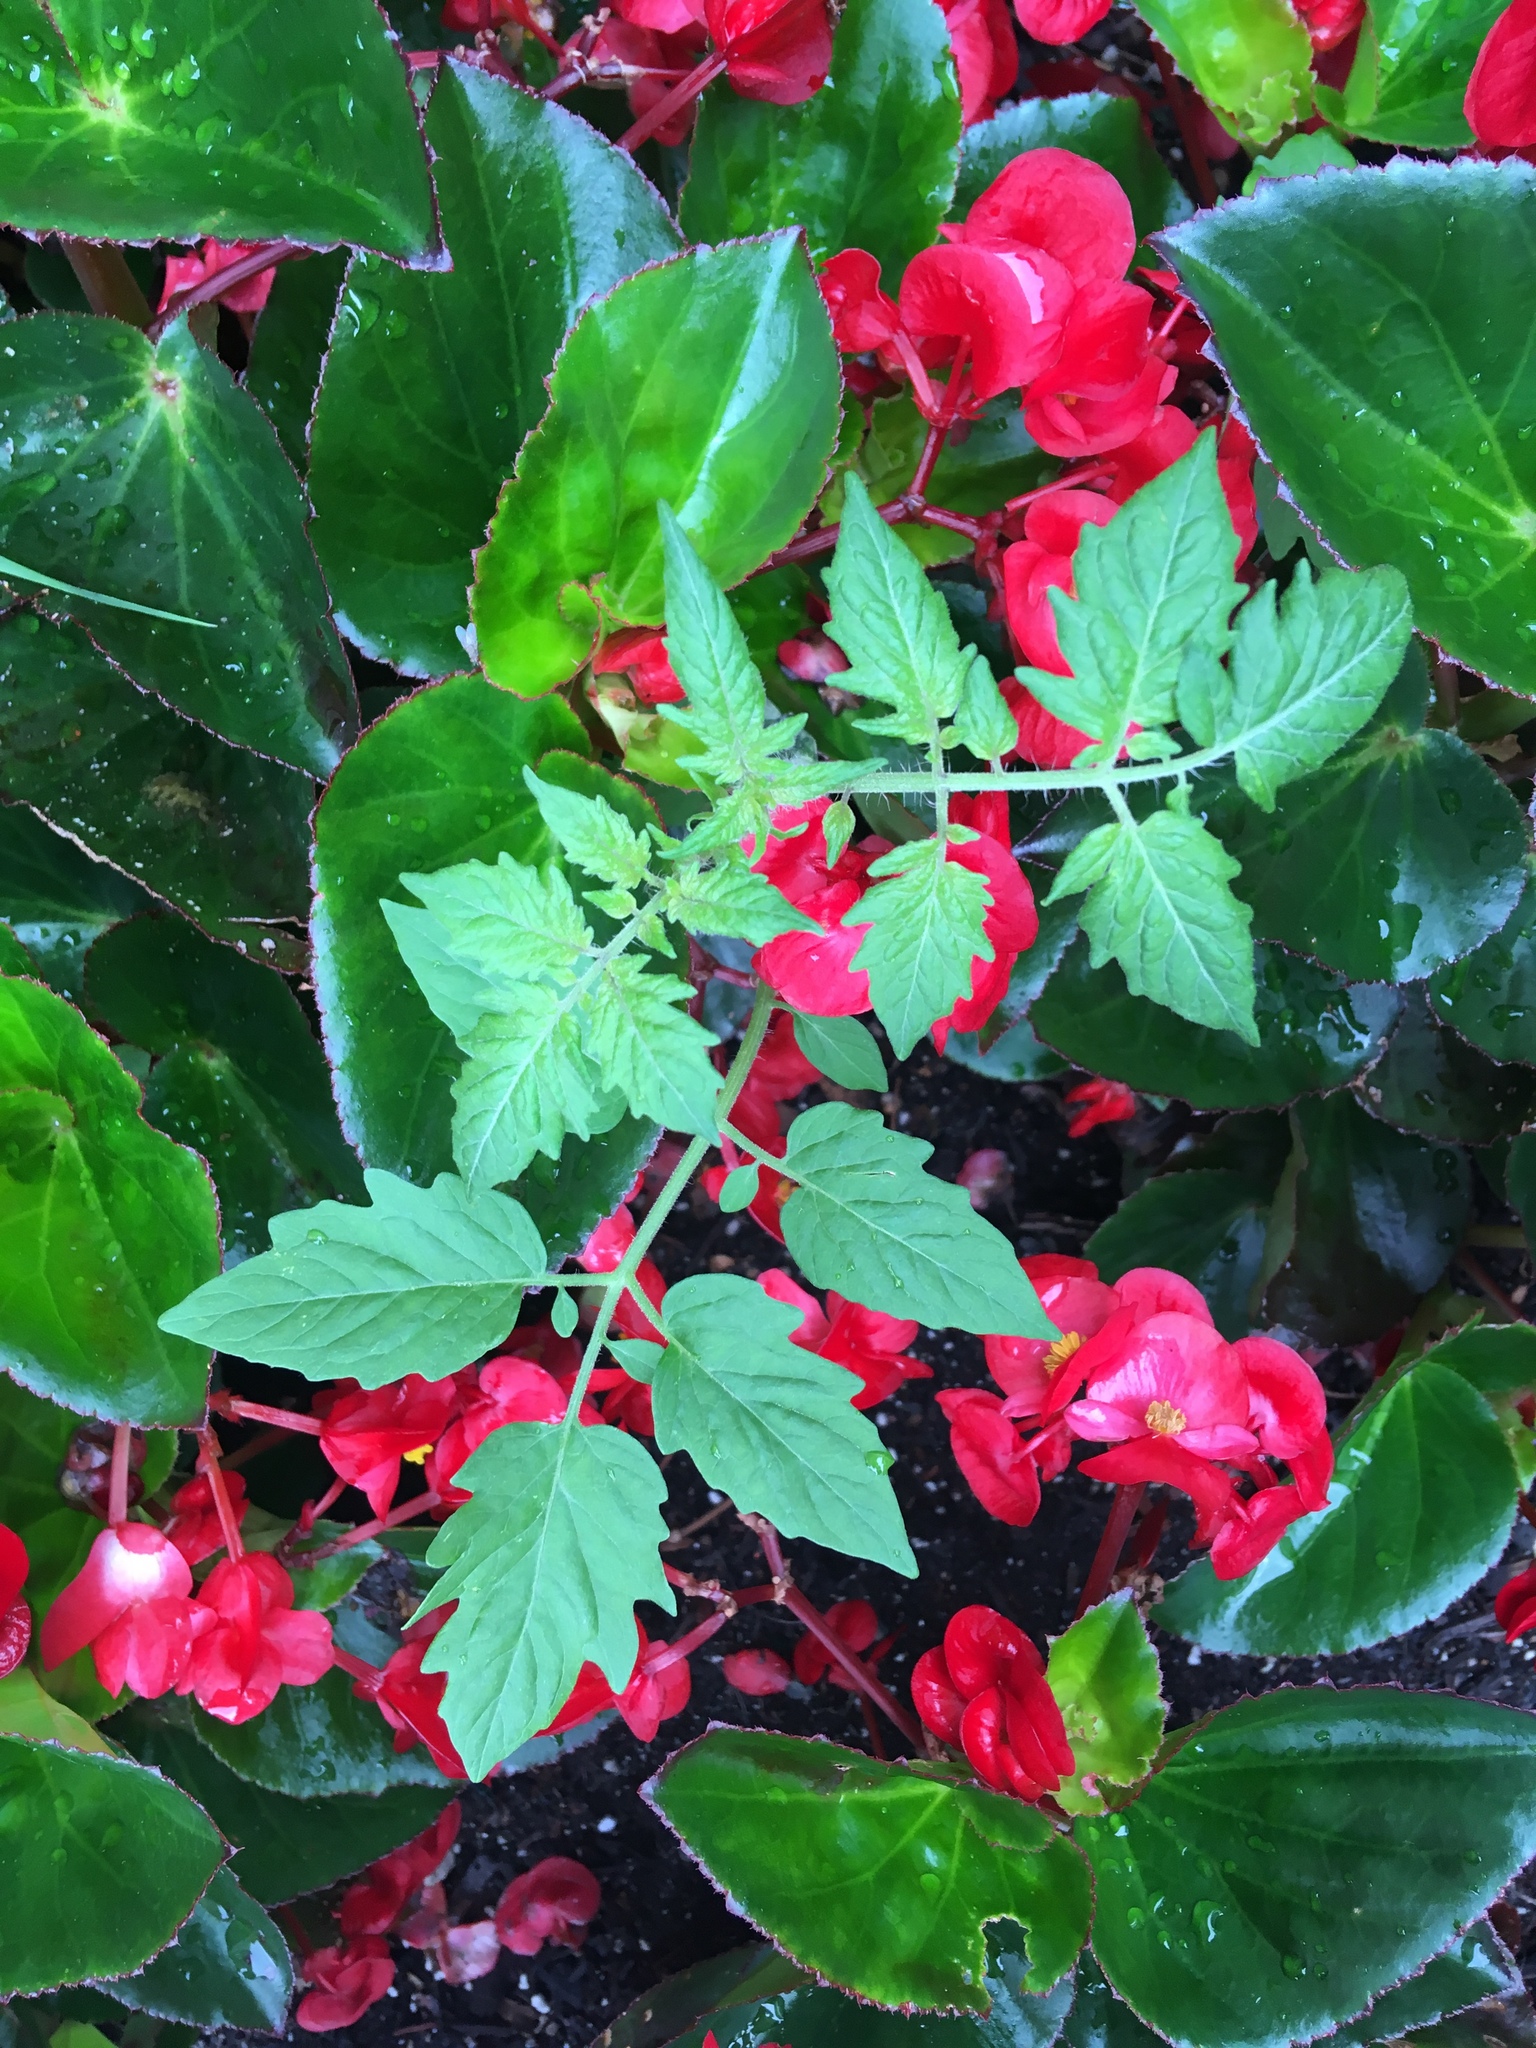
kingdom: Plantae
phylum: Tracheophyta
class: Magnoliopsida
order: Solanales
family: Solanaceae
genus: Solanum
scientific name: Solanum lycopersicum
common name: Garden tomato
